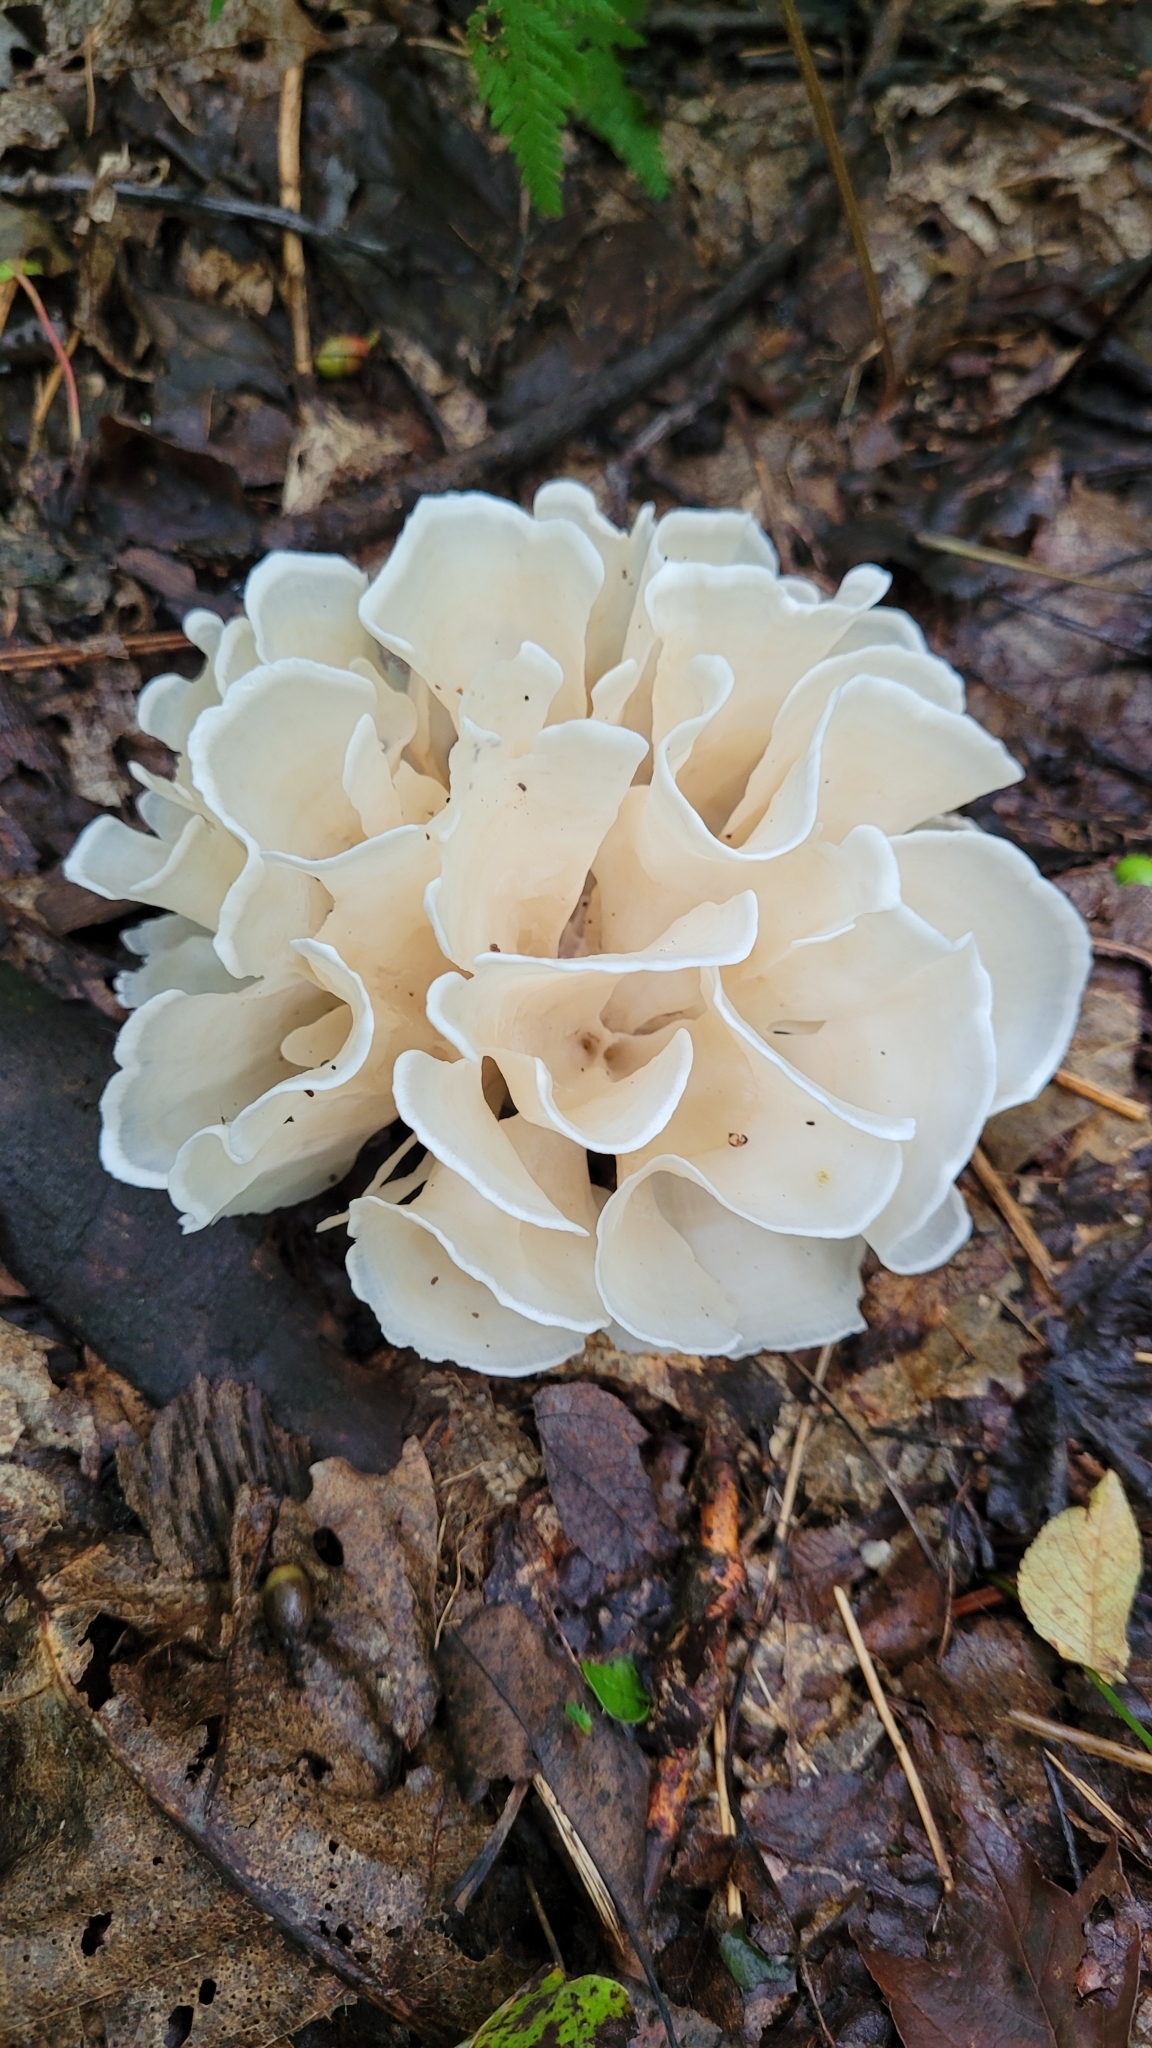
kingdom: Fungi
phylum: Basidiomycota
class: Agaricomycetes
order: Polyporales
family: Sparassidaceae
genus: Sparassis
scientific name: Sparassis spathulata
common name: Eastern cauliflower mushroom
